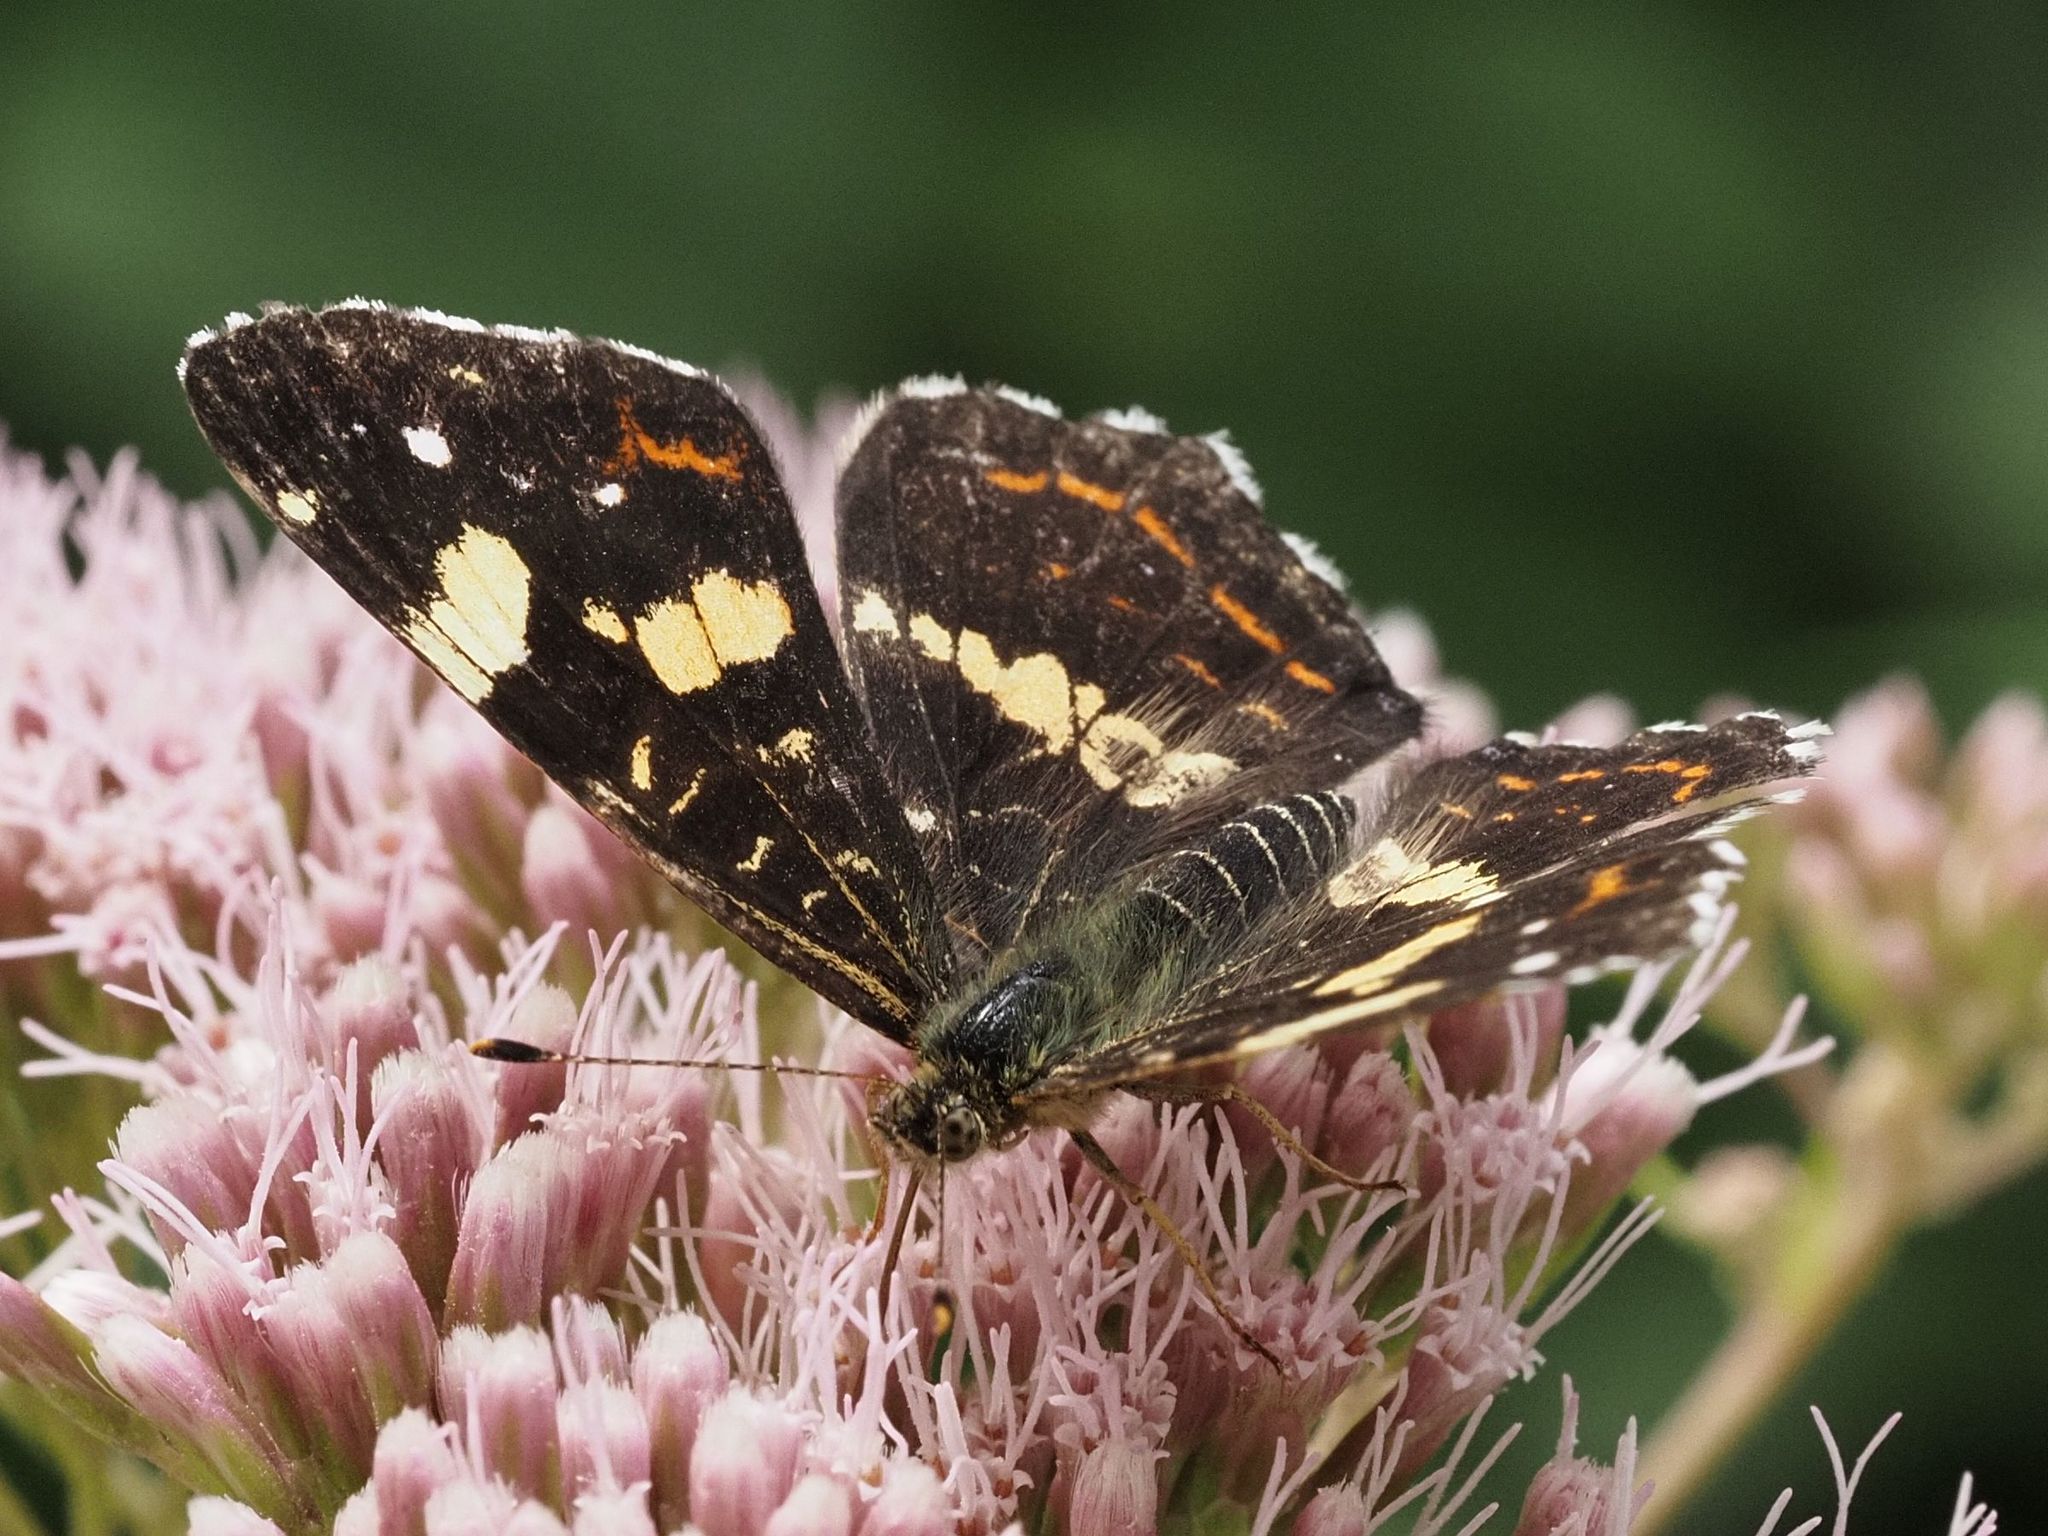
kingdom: Animalia
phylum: Arthropoda
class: Insecta
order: Lepidoptera
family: Nymphalidae
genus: Araschnia
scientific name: Araschnia levana
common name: Map butterfly
